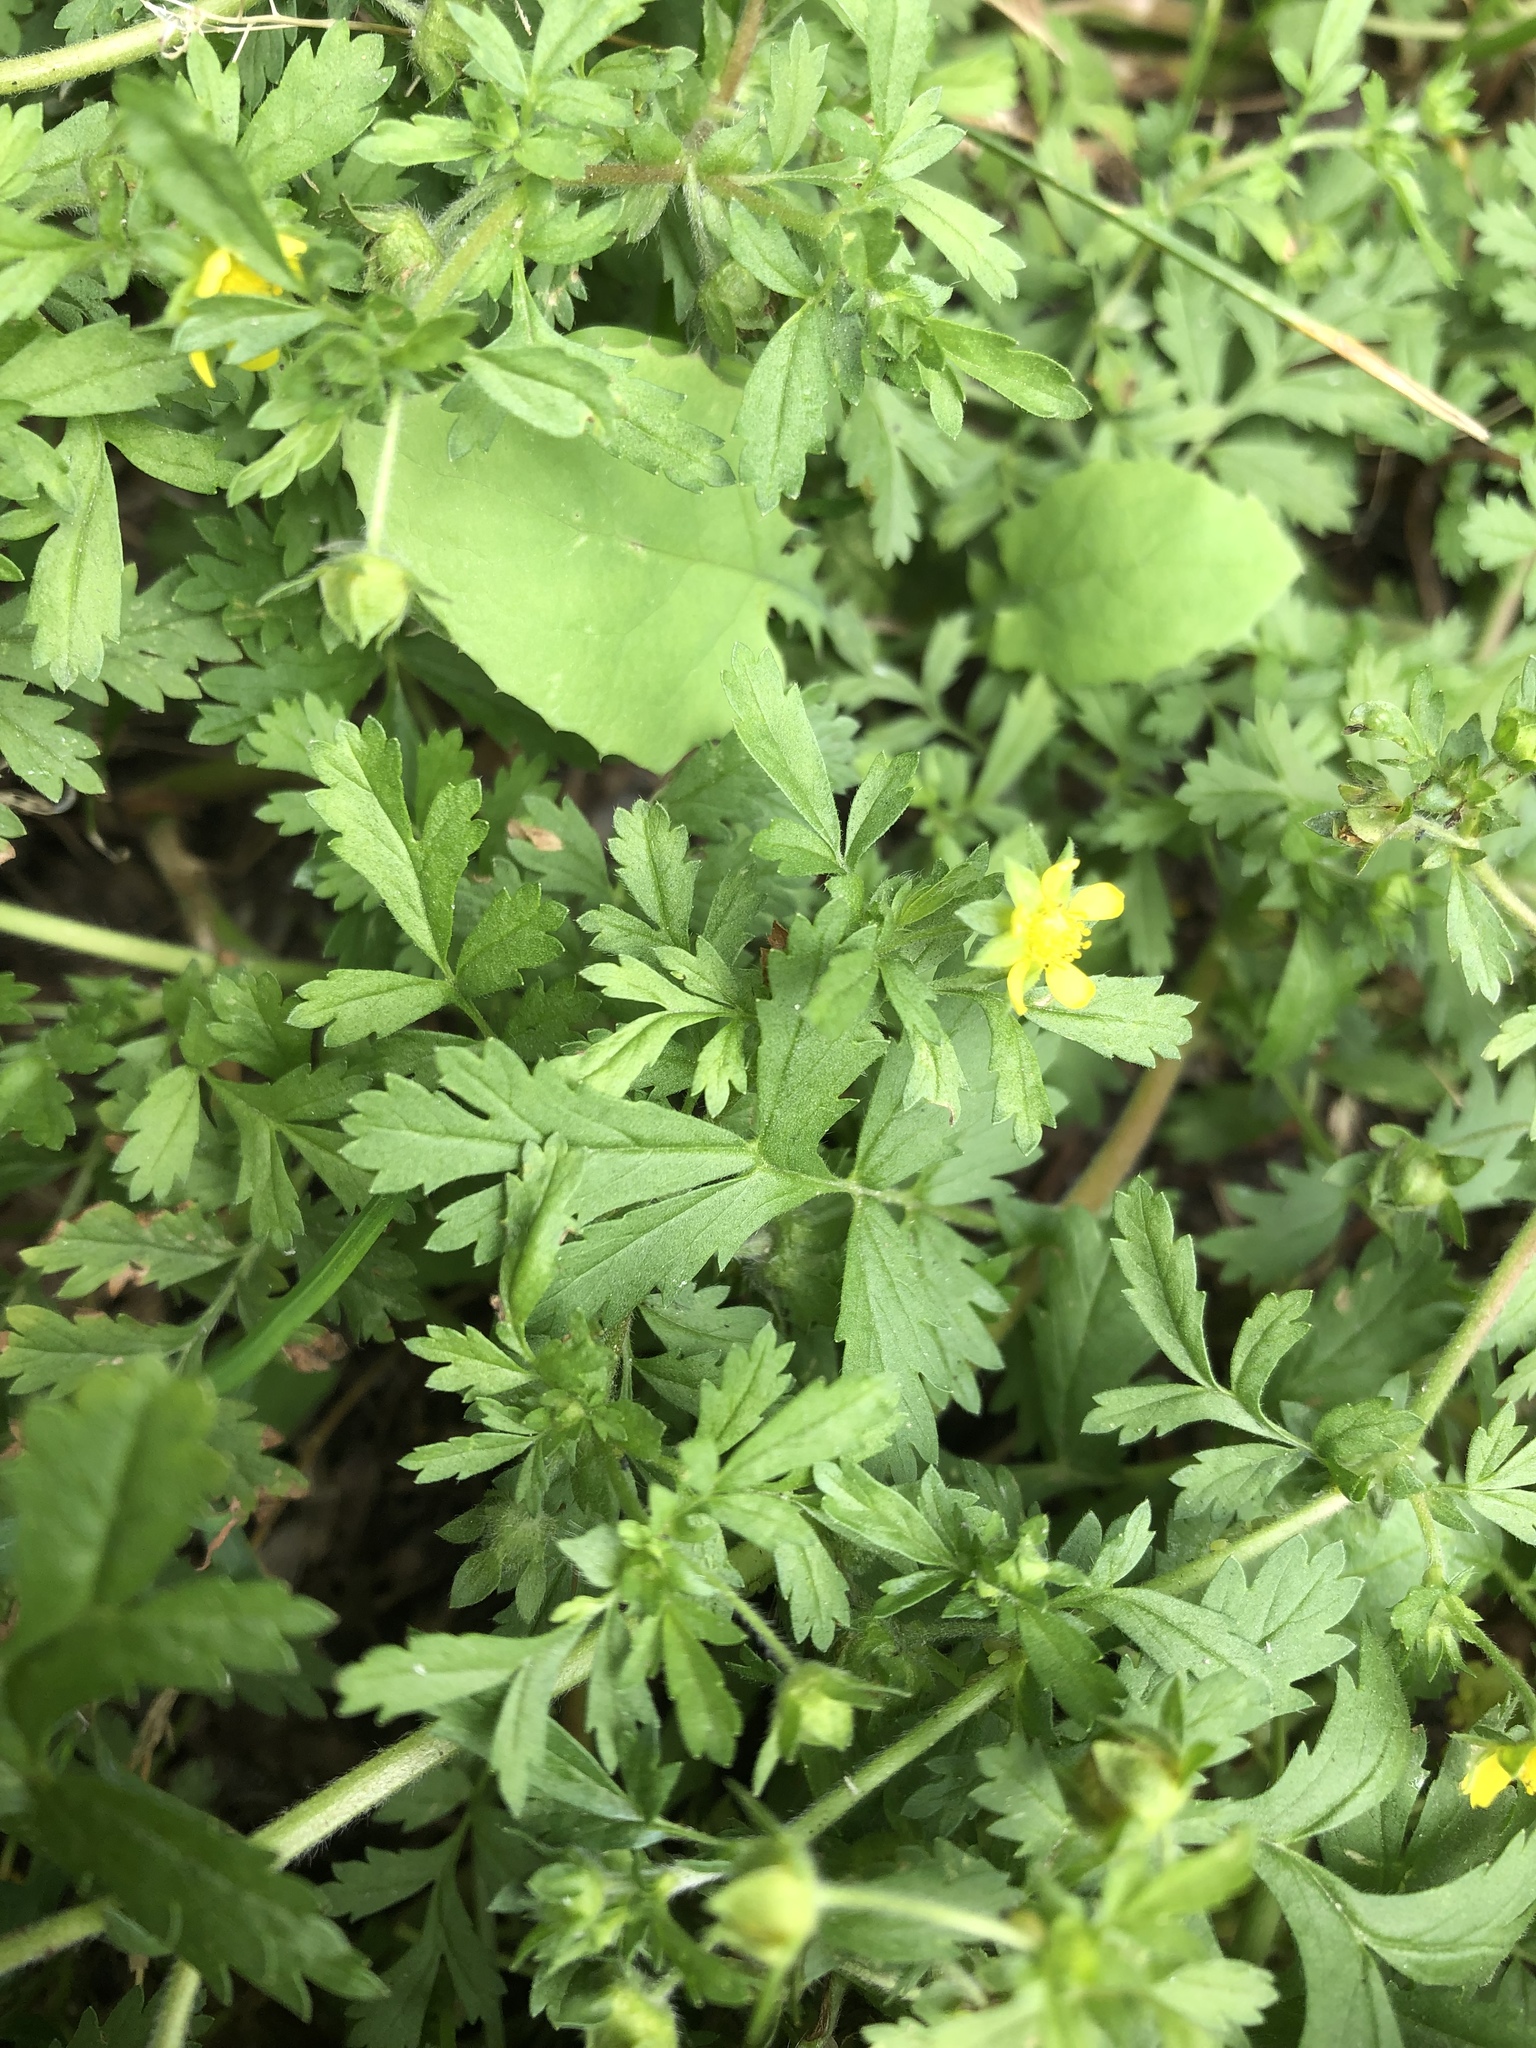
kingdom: Plantae
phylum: Tracheophyta
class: Magnoliopsida
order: Rosales
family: Rosaceae
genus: Potentilla
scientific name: Potentilla supina
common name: Prostrate cinquefoil
